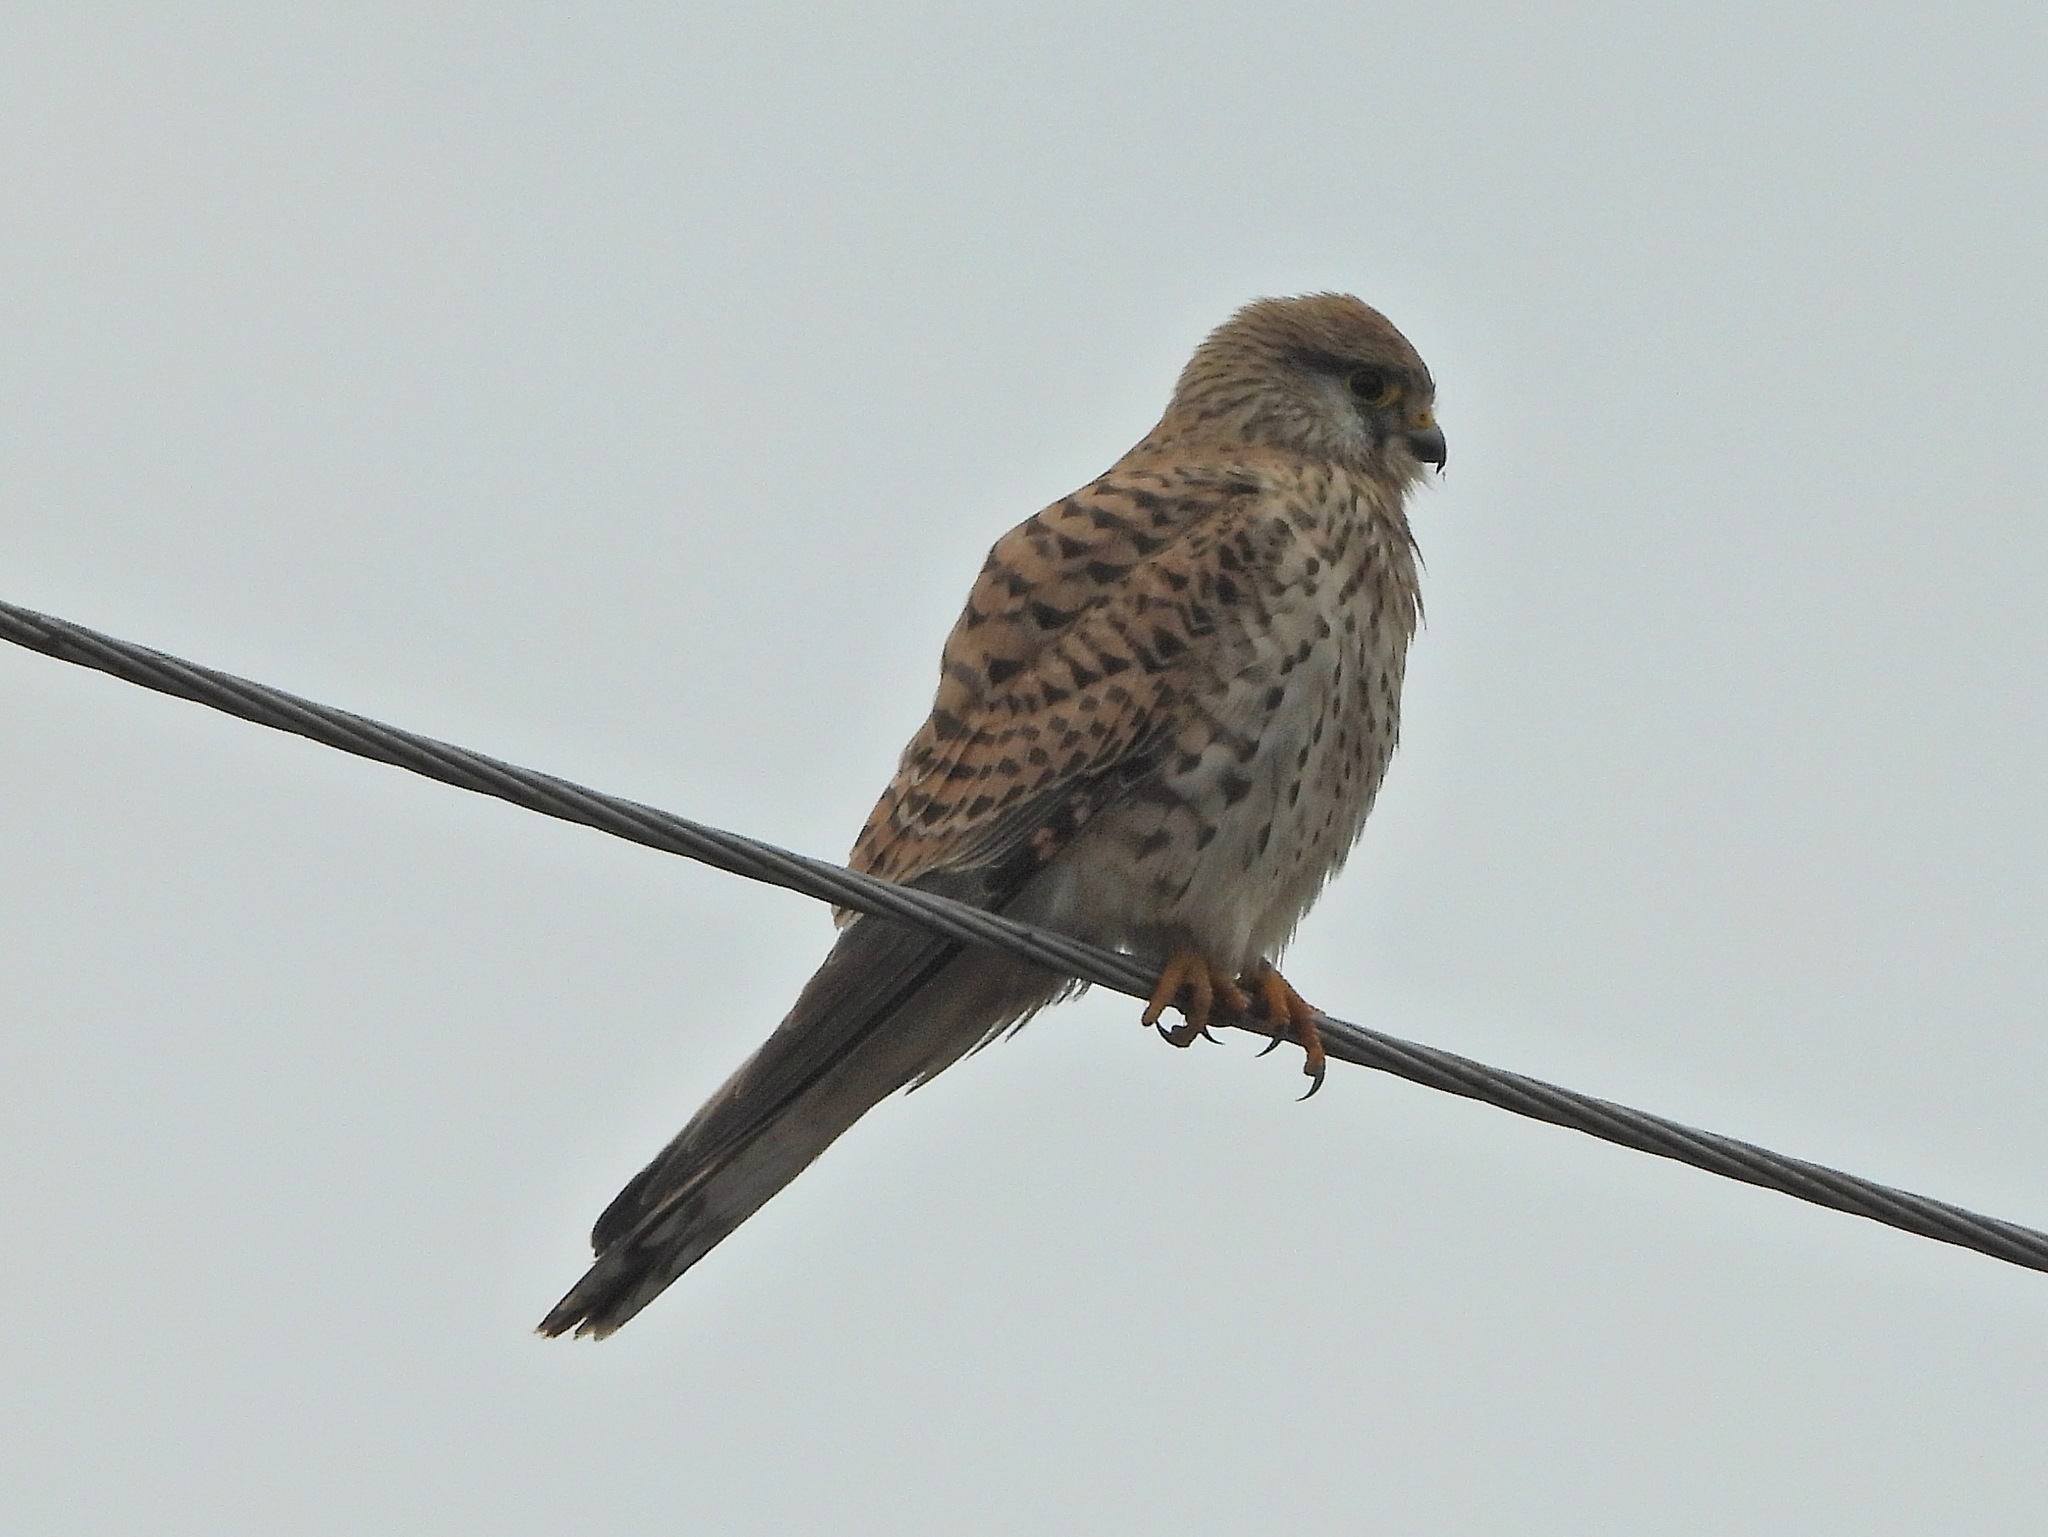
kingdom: Animalia
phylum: Chordata
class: Aves
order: Falconiformes
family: Falconidae
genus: Falco
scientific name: Falco tinnunculus
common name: Common kestrel
